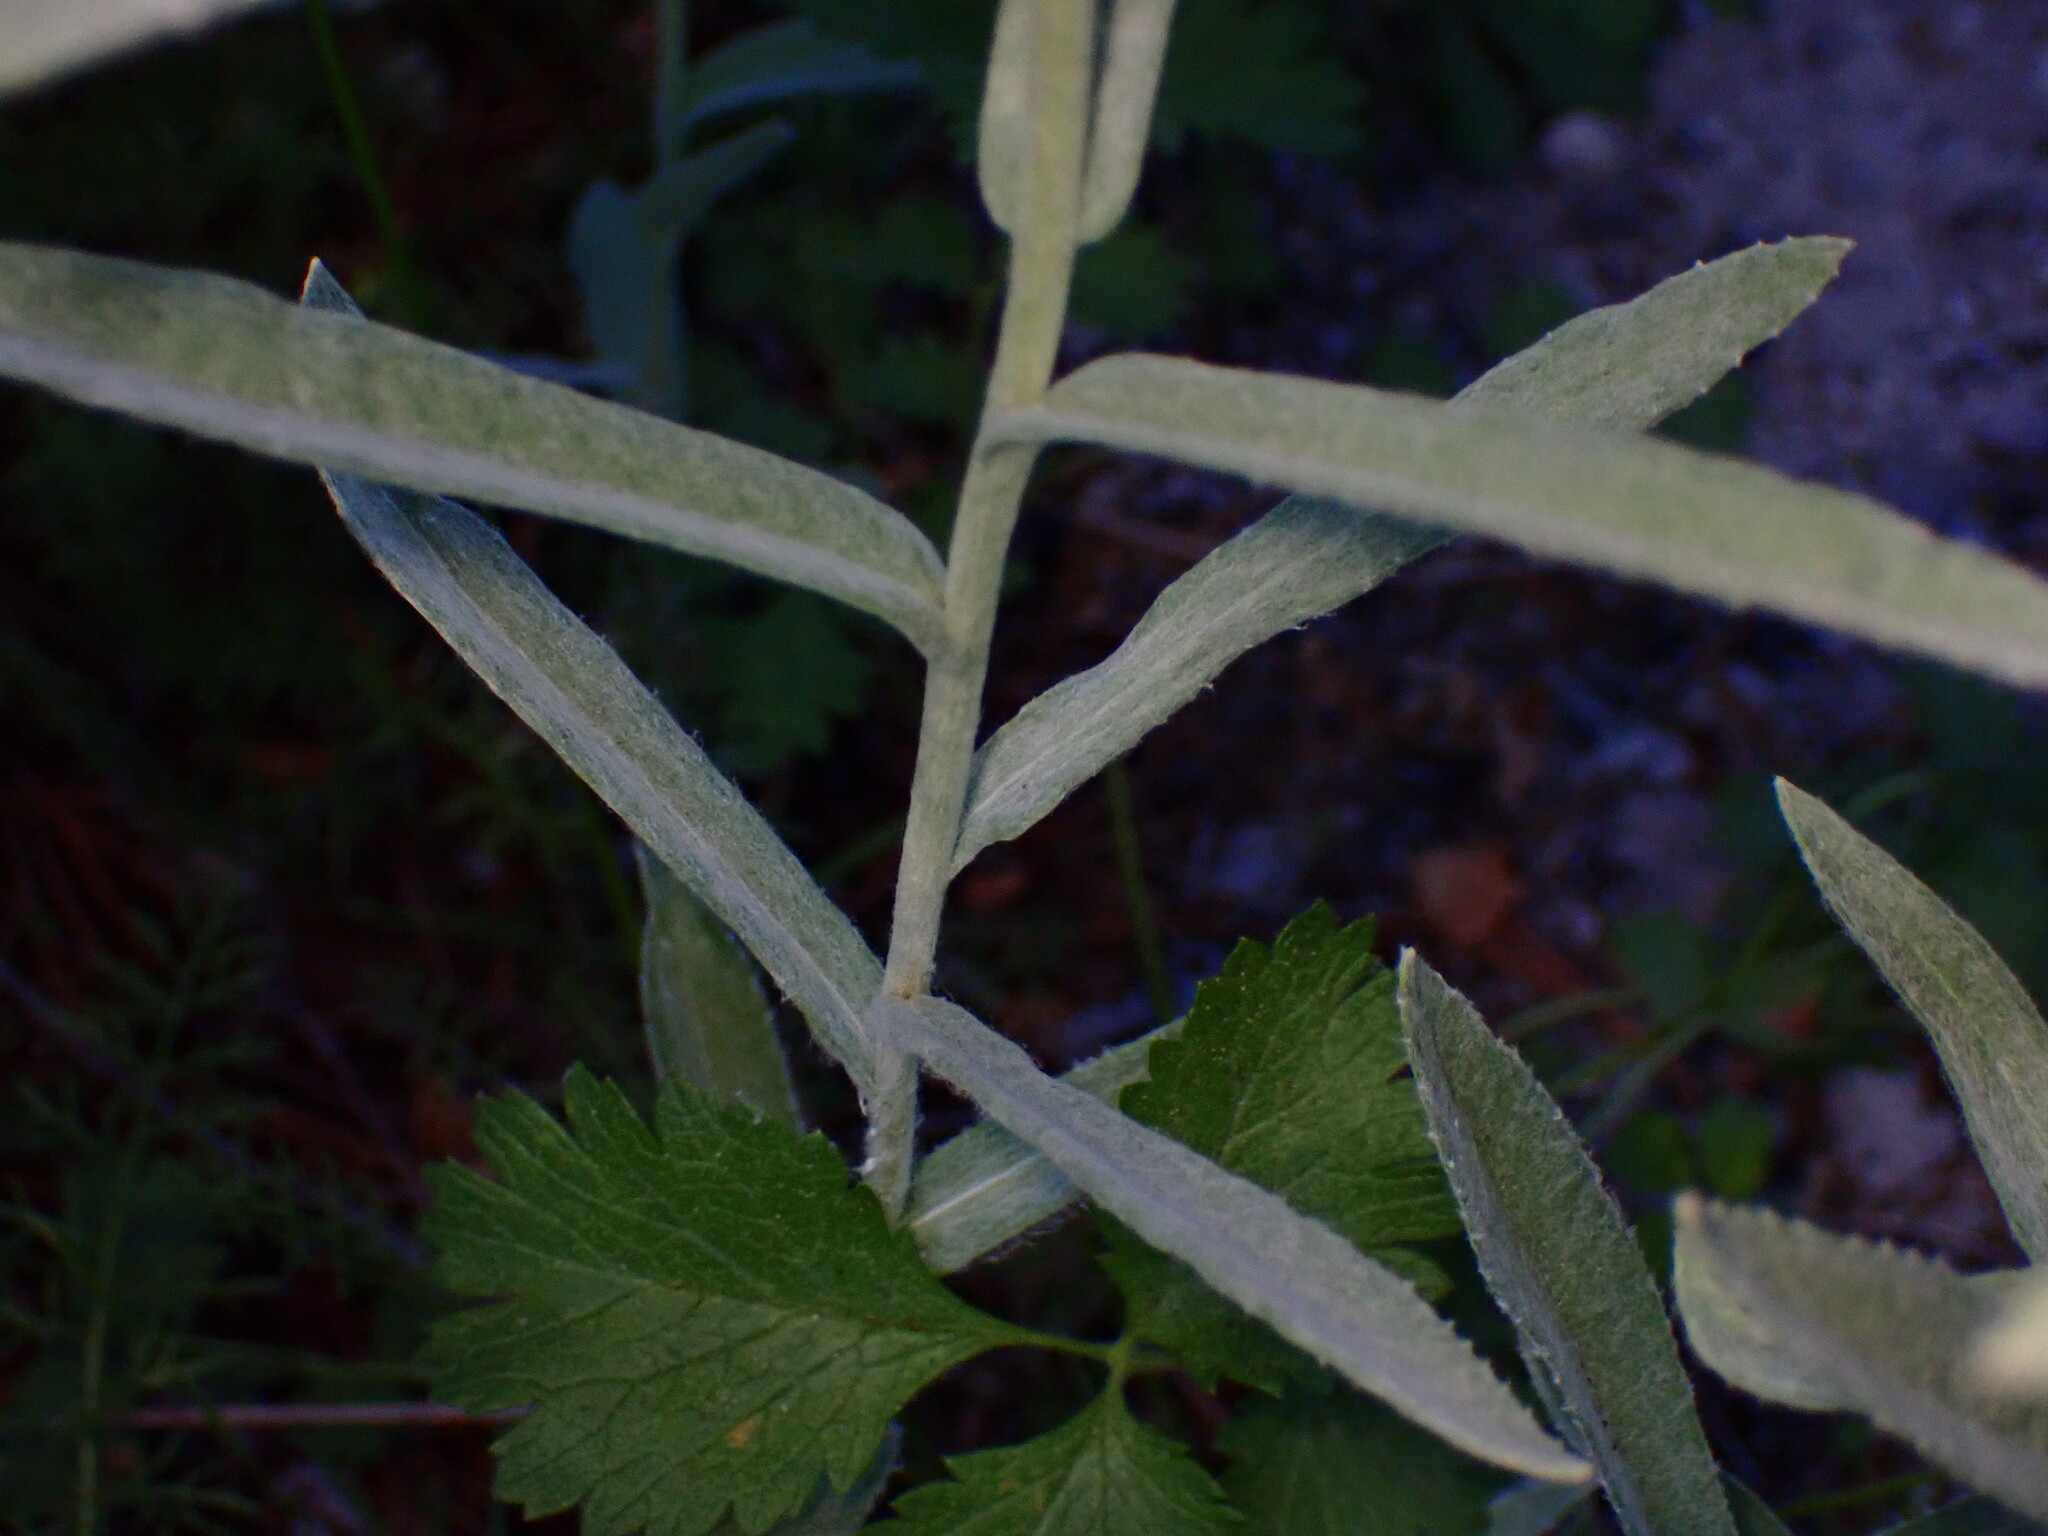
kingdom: Plantae
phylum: Tracheophyta
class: Magnoliopsida
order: Asterales
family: Asteraceae
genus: Anaphalis
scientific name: Anaphalis margaritacea
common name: Pearly everlasting
